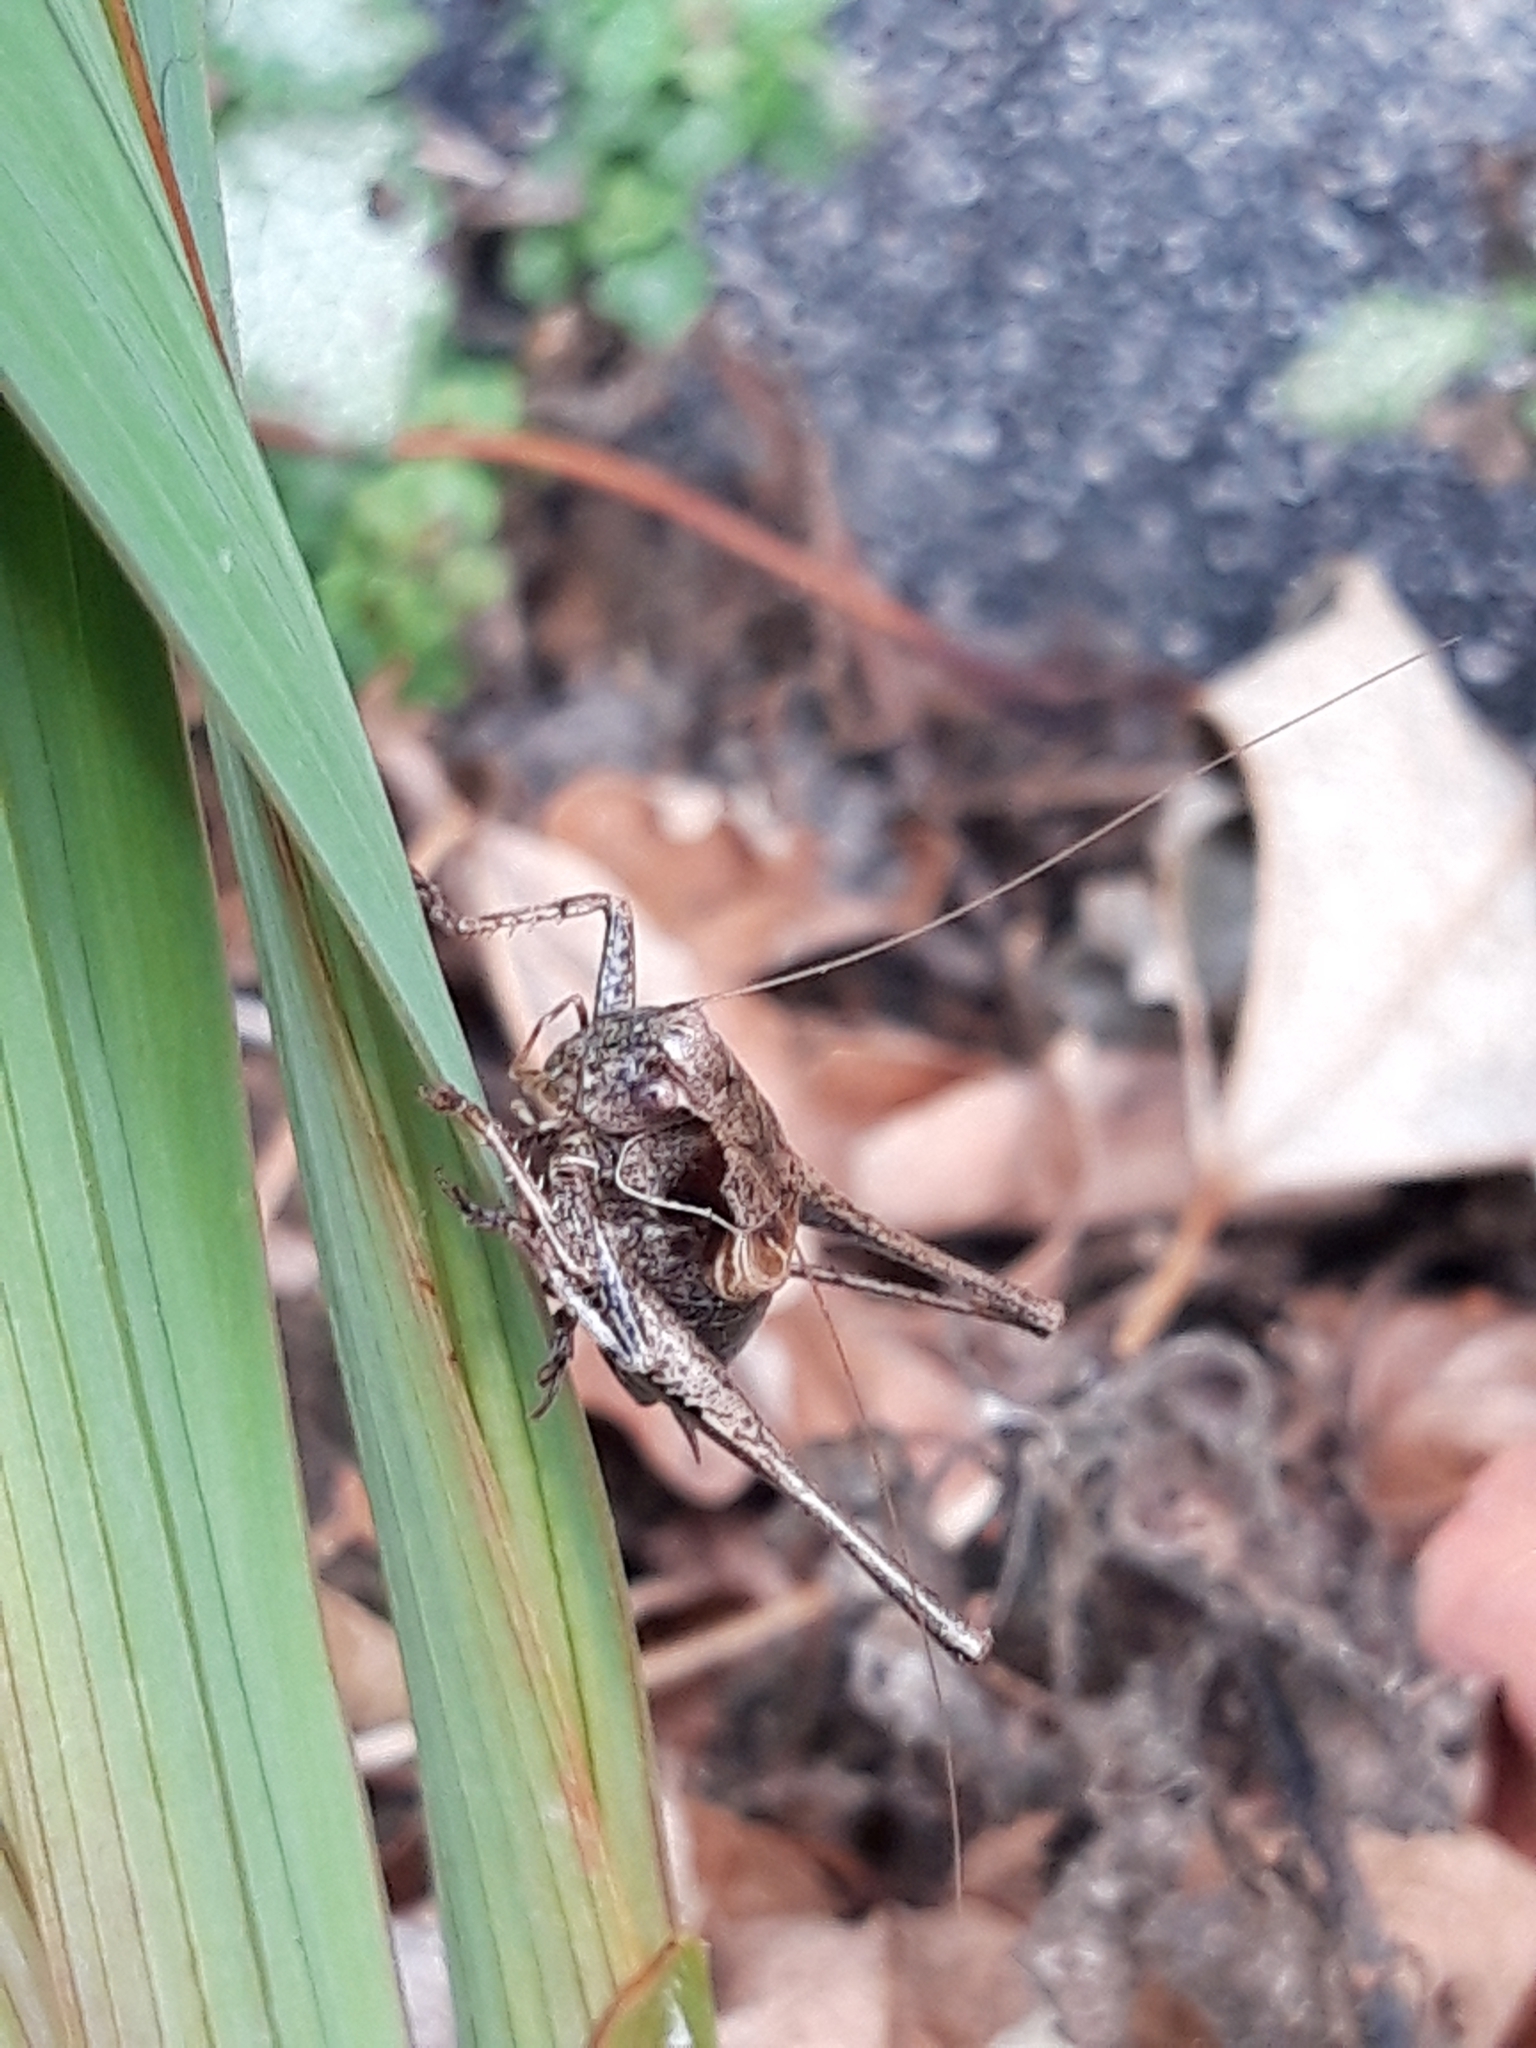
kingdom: Animalia
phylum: Arthropoda
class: Insecta
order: Orthoptera
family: Tettigoniidae
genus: Pholidoptera
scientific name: Pholidoptera griseoaptera
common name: Dark bush-cricket
